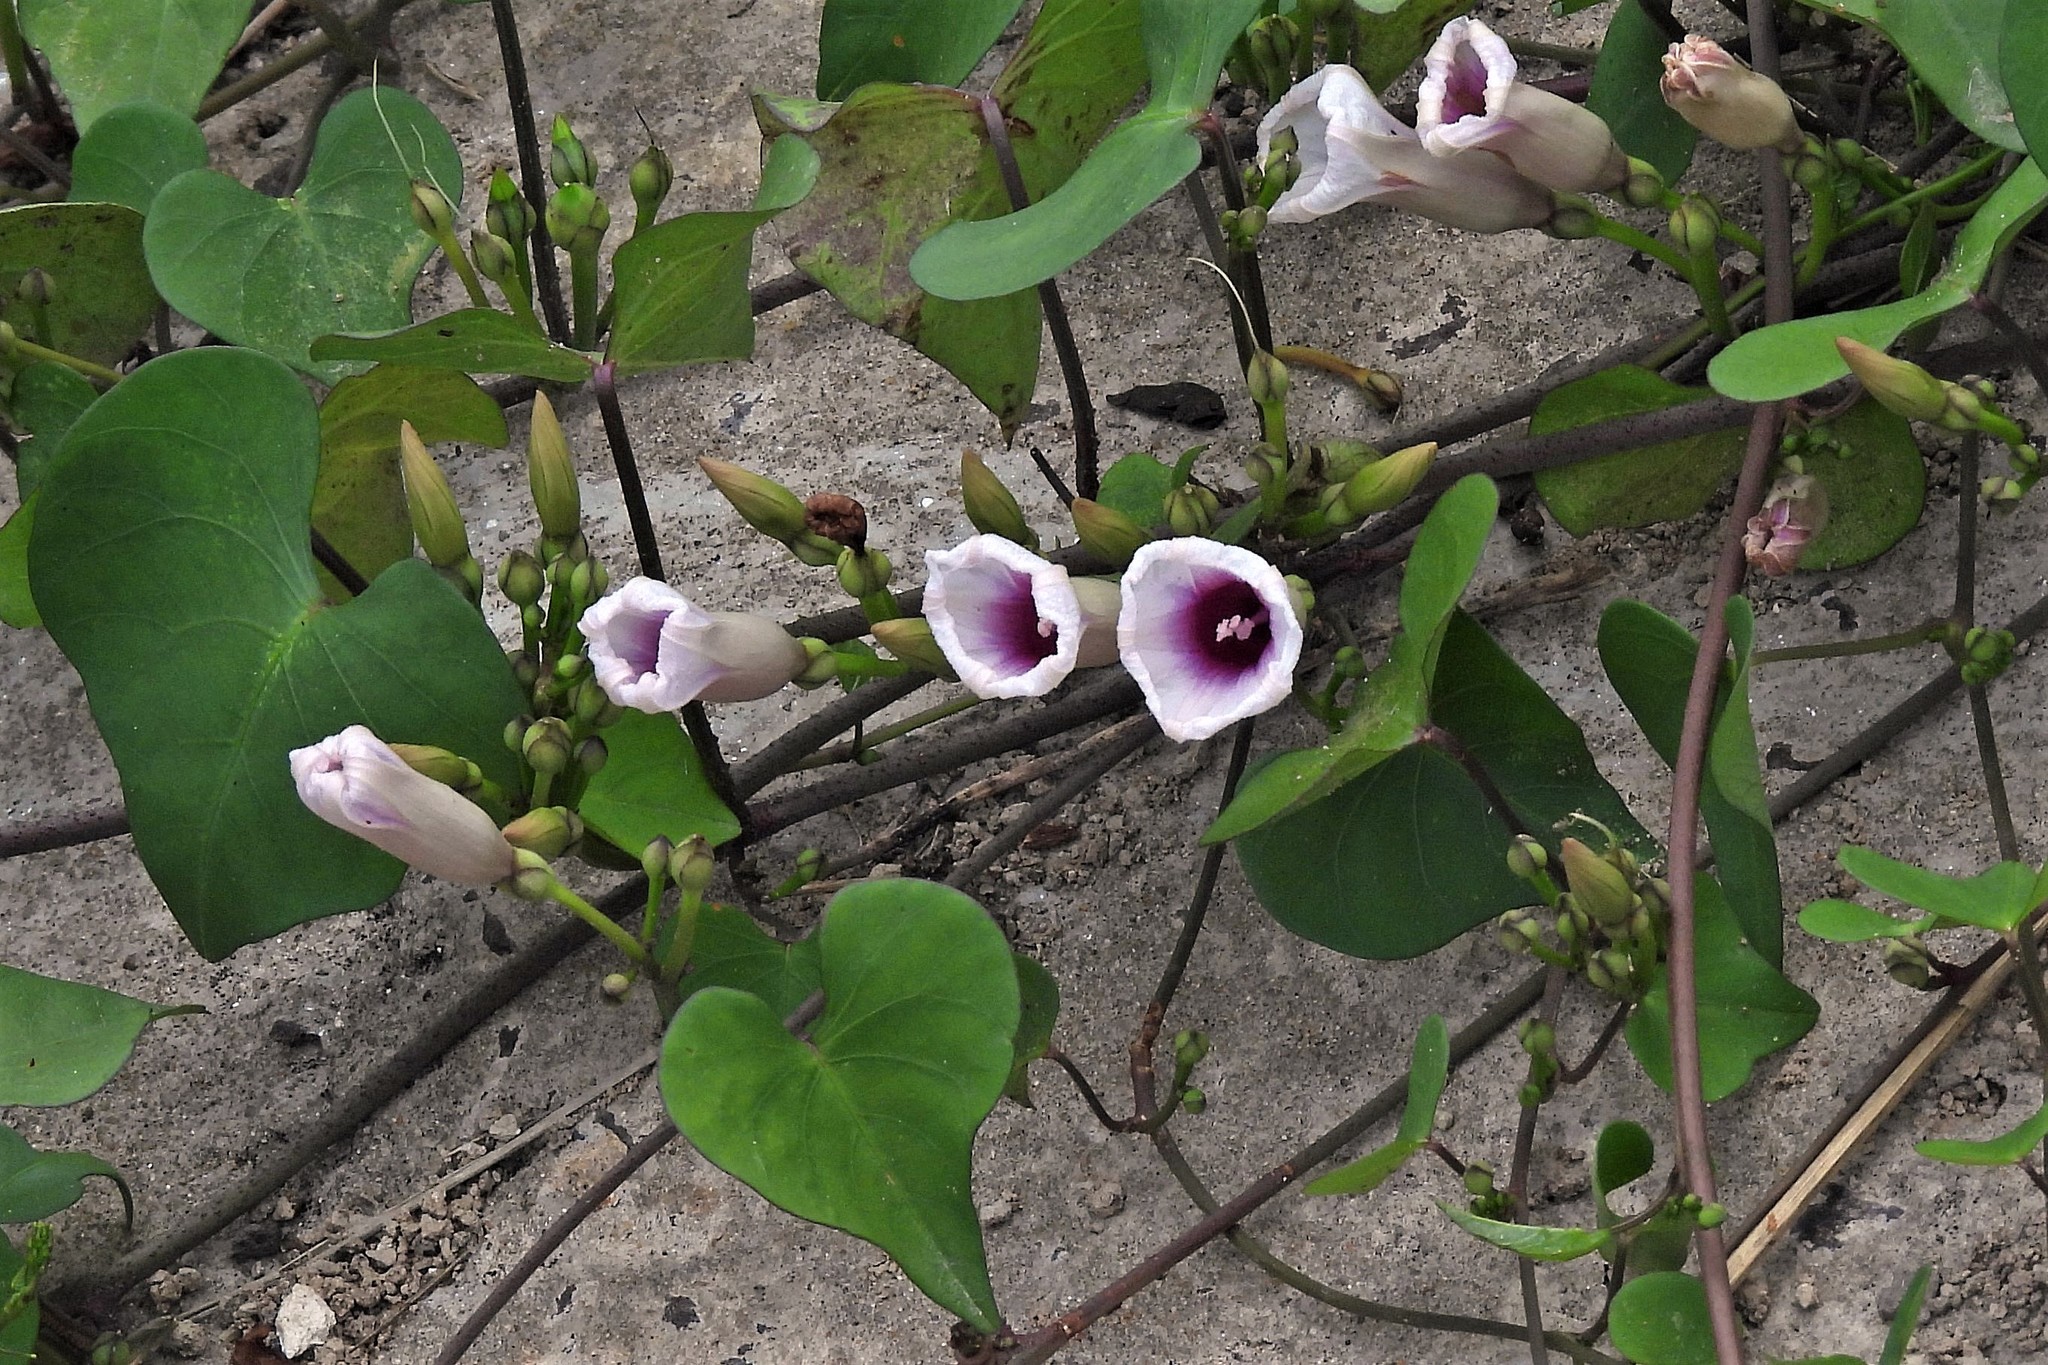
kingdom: Plantae
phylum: Tracheophyta
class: Magnoliopsida
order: Solanales
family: Convolvulaceae
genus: Ipomoea
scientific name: Ipomoea amnicola
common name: Redcenter morning-glory
